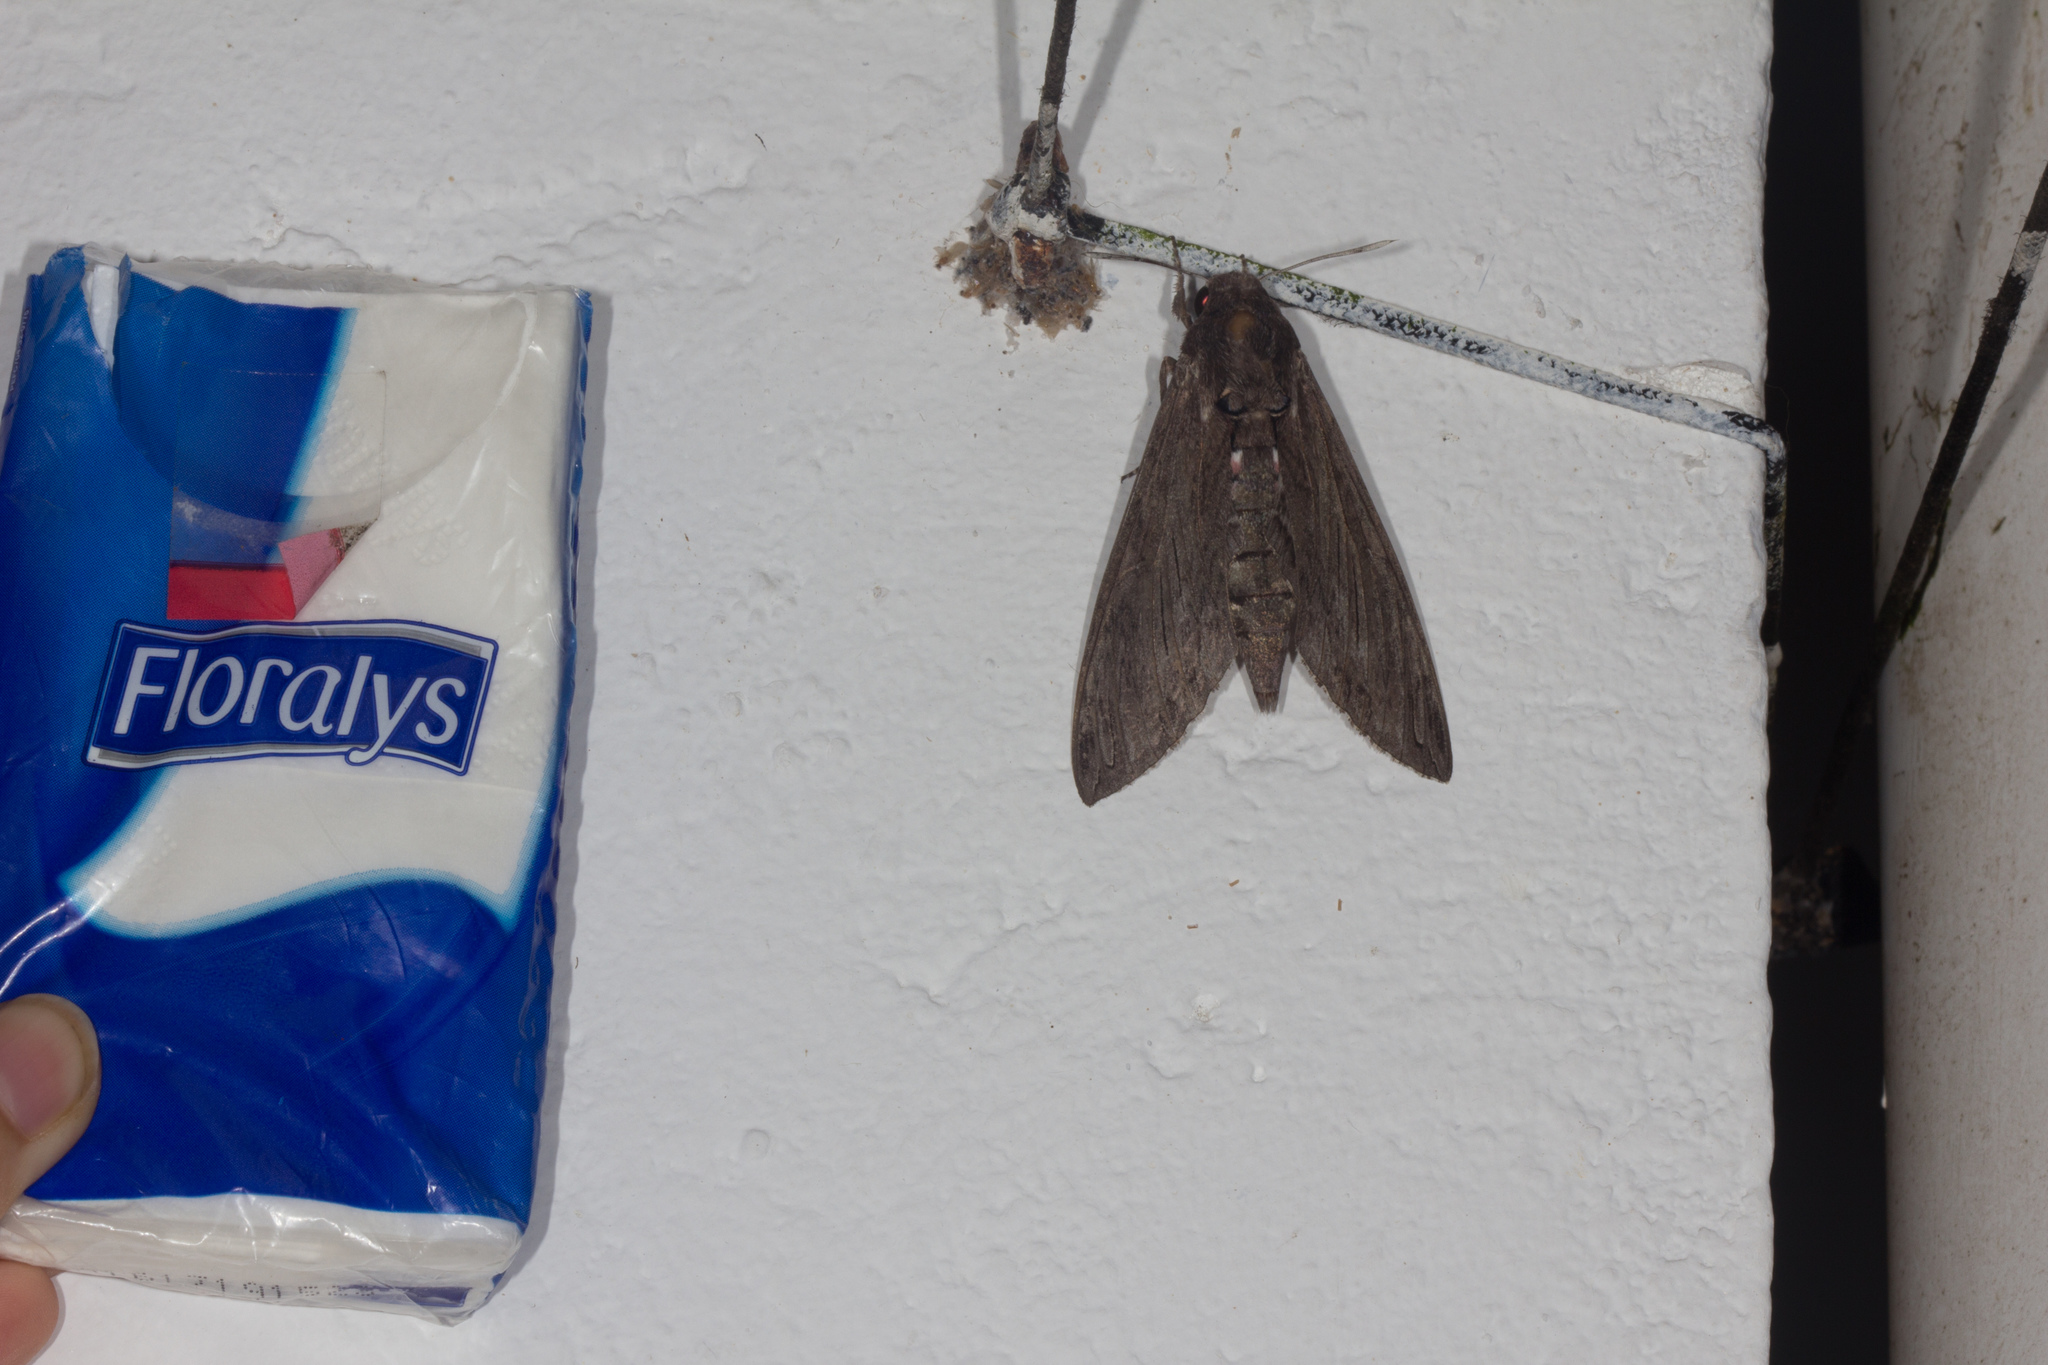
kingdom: Animalia
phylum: Arthropoda
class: Insecta
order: Lepidoptera
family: Sphingidae
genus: Agrius
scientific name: Agrius convolvuli
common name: Convolvulus hawkmoth
